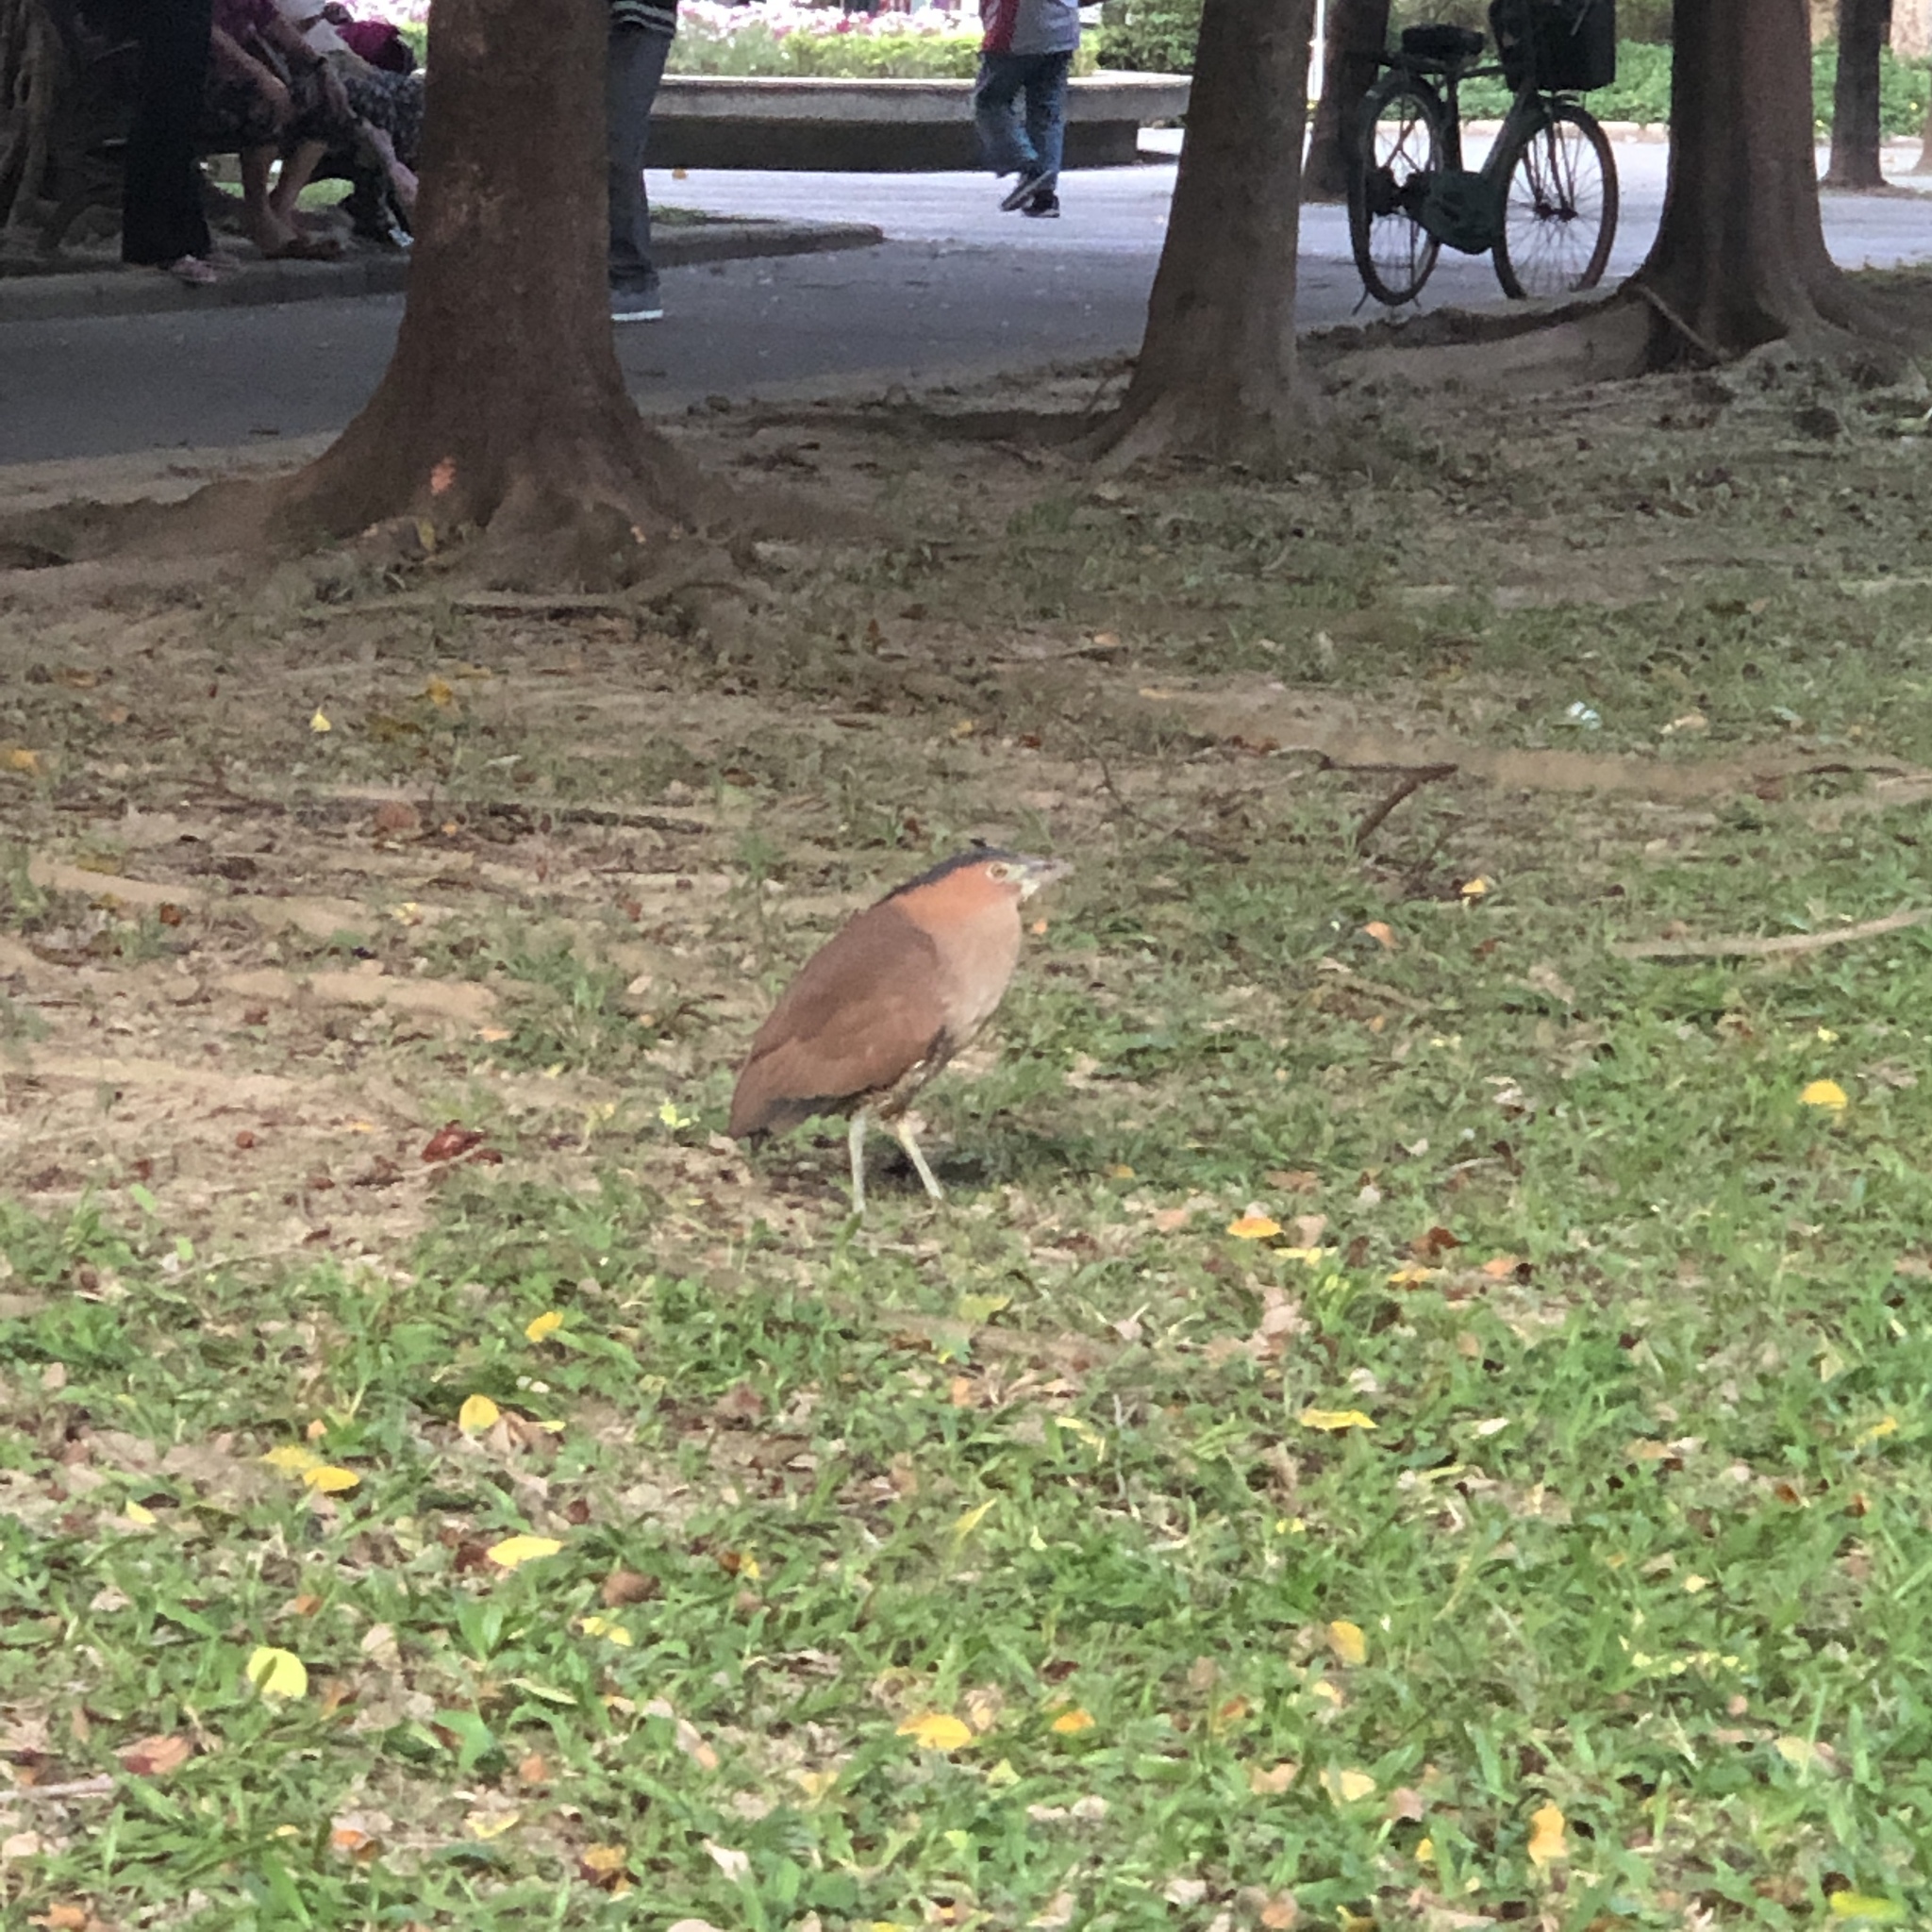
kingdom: Animalia
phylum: Chordata
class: Aves
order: Pelecaniformes
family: Ardeidae
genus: Gorsachius
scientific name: Gorsachius melanolophus
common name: Malayan night heron
